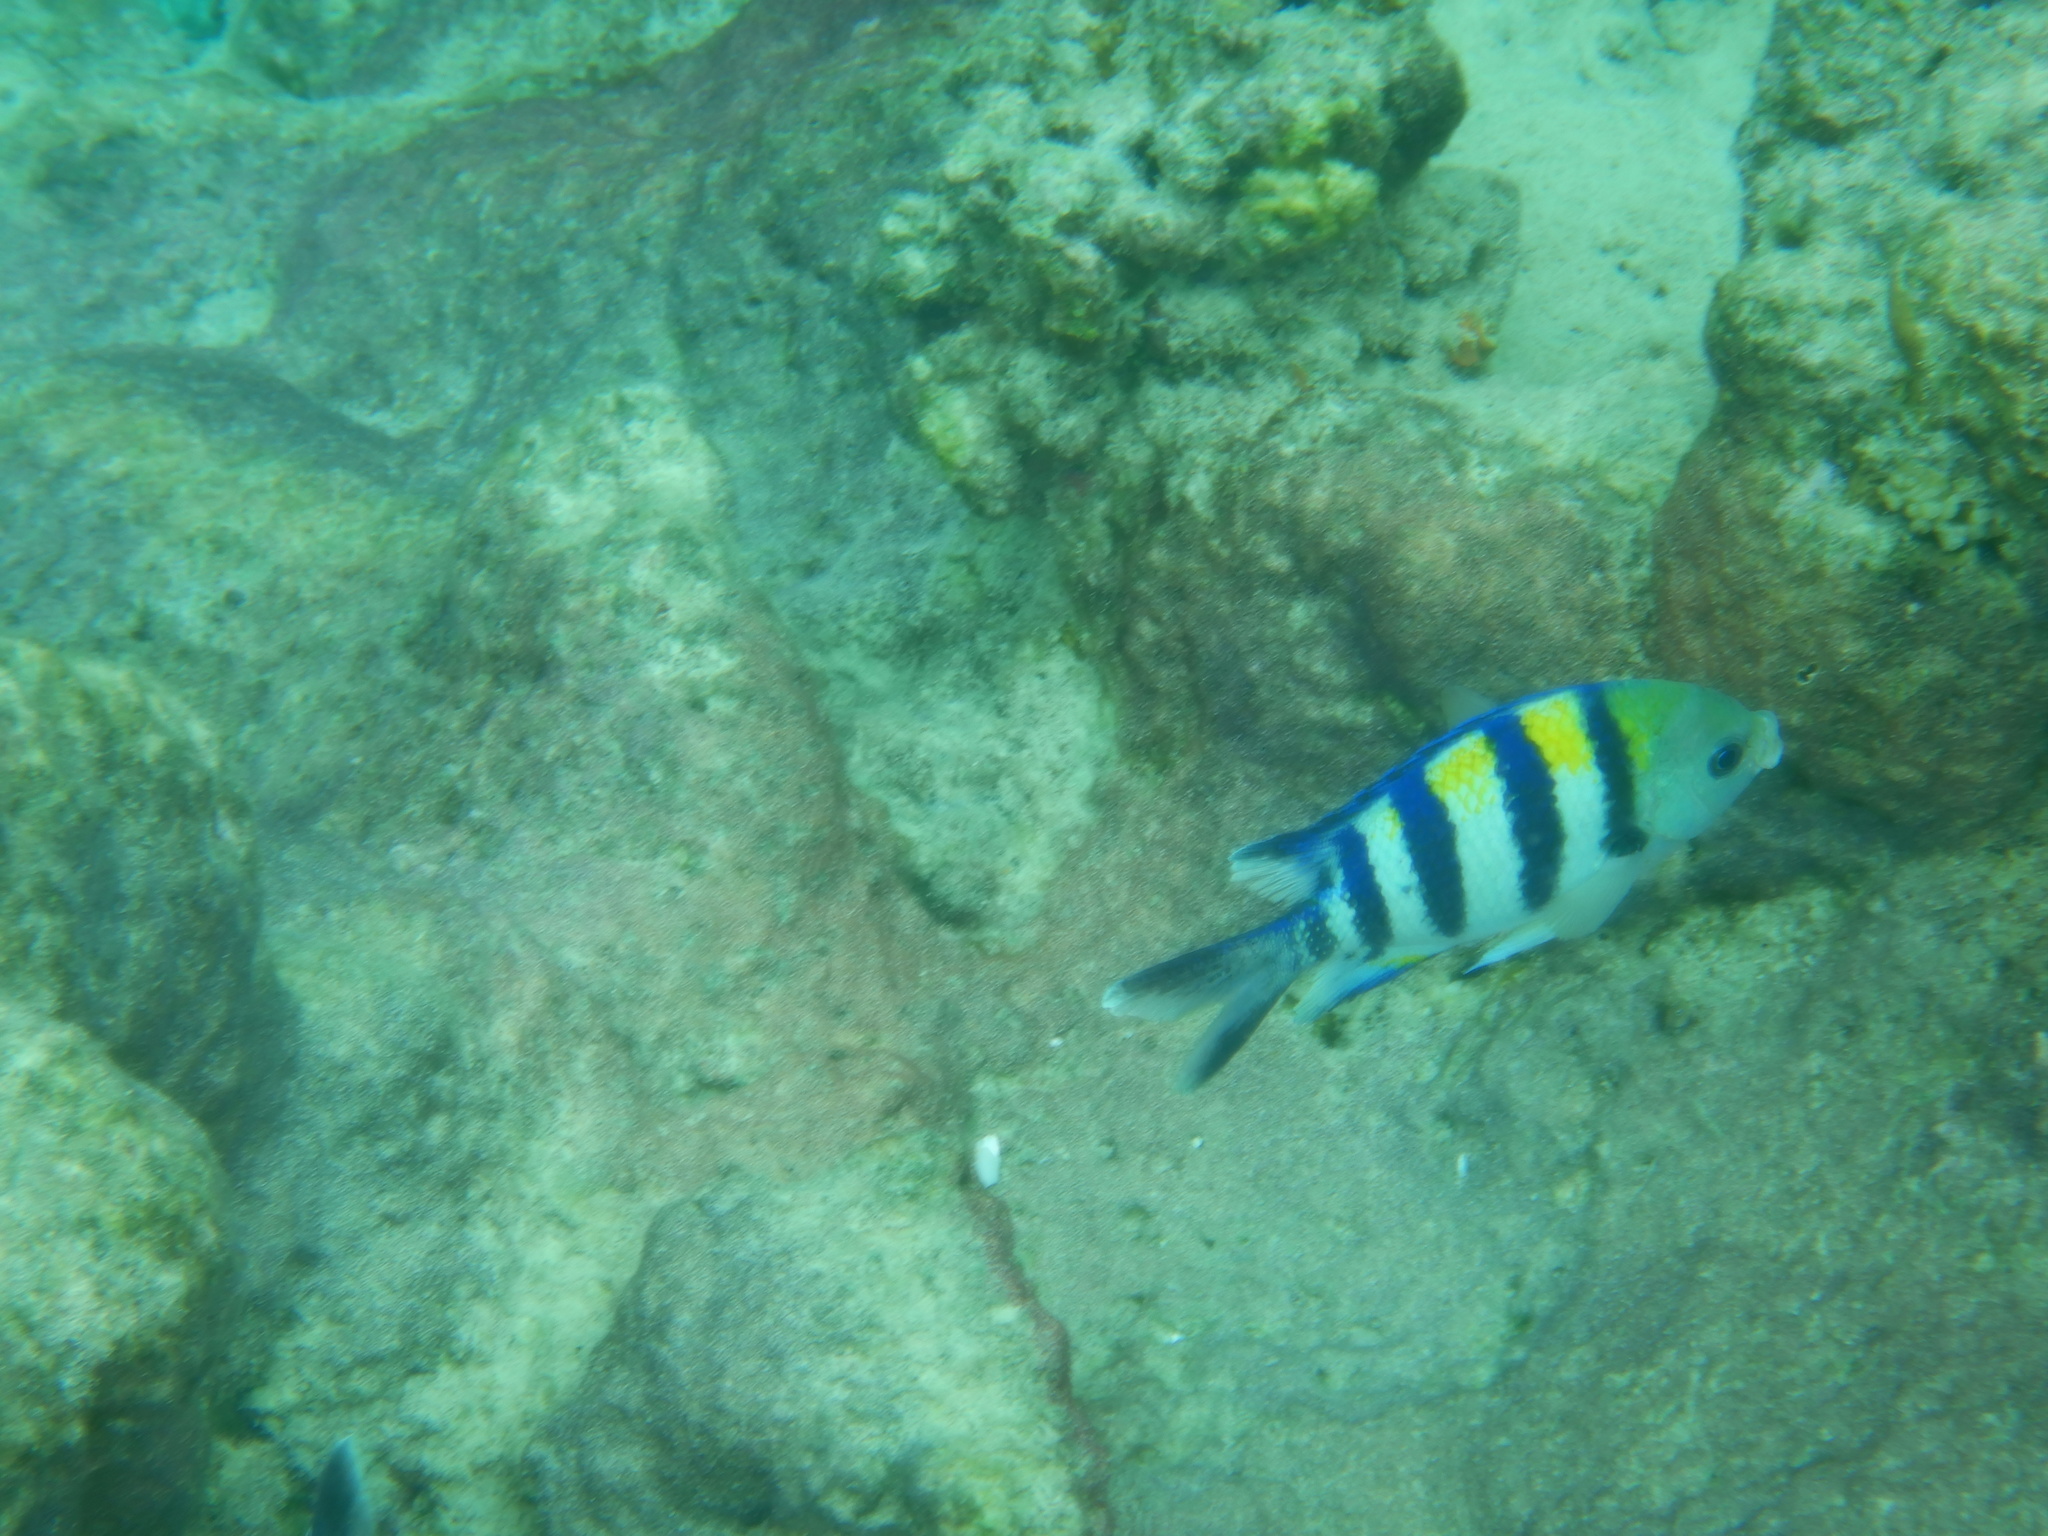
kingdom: Animalia
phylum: Chordata
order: Perciformes
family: Pomacentridae
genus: Abudefduf
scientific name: Abudefduf vaigiensis
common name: Indo-pacific sergeant
